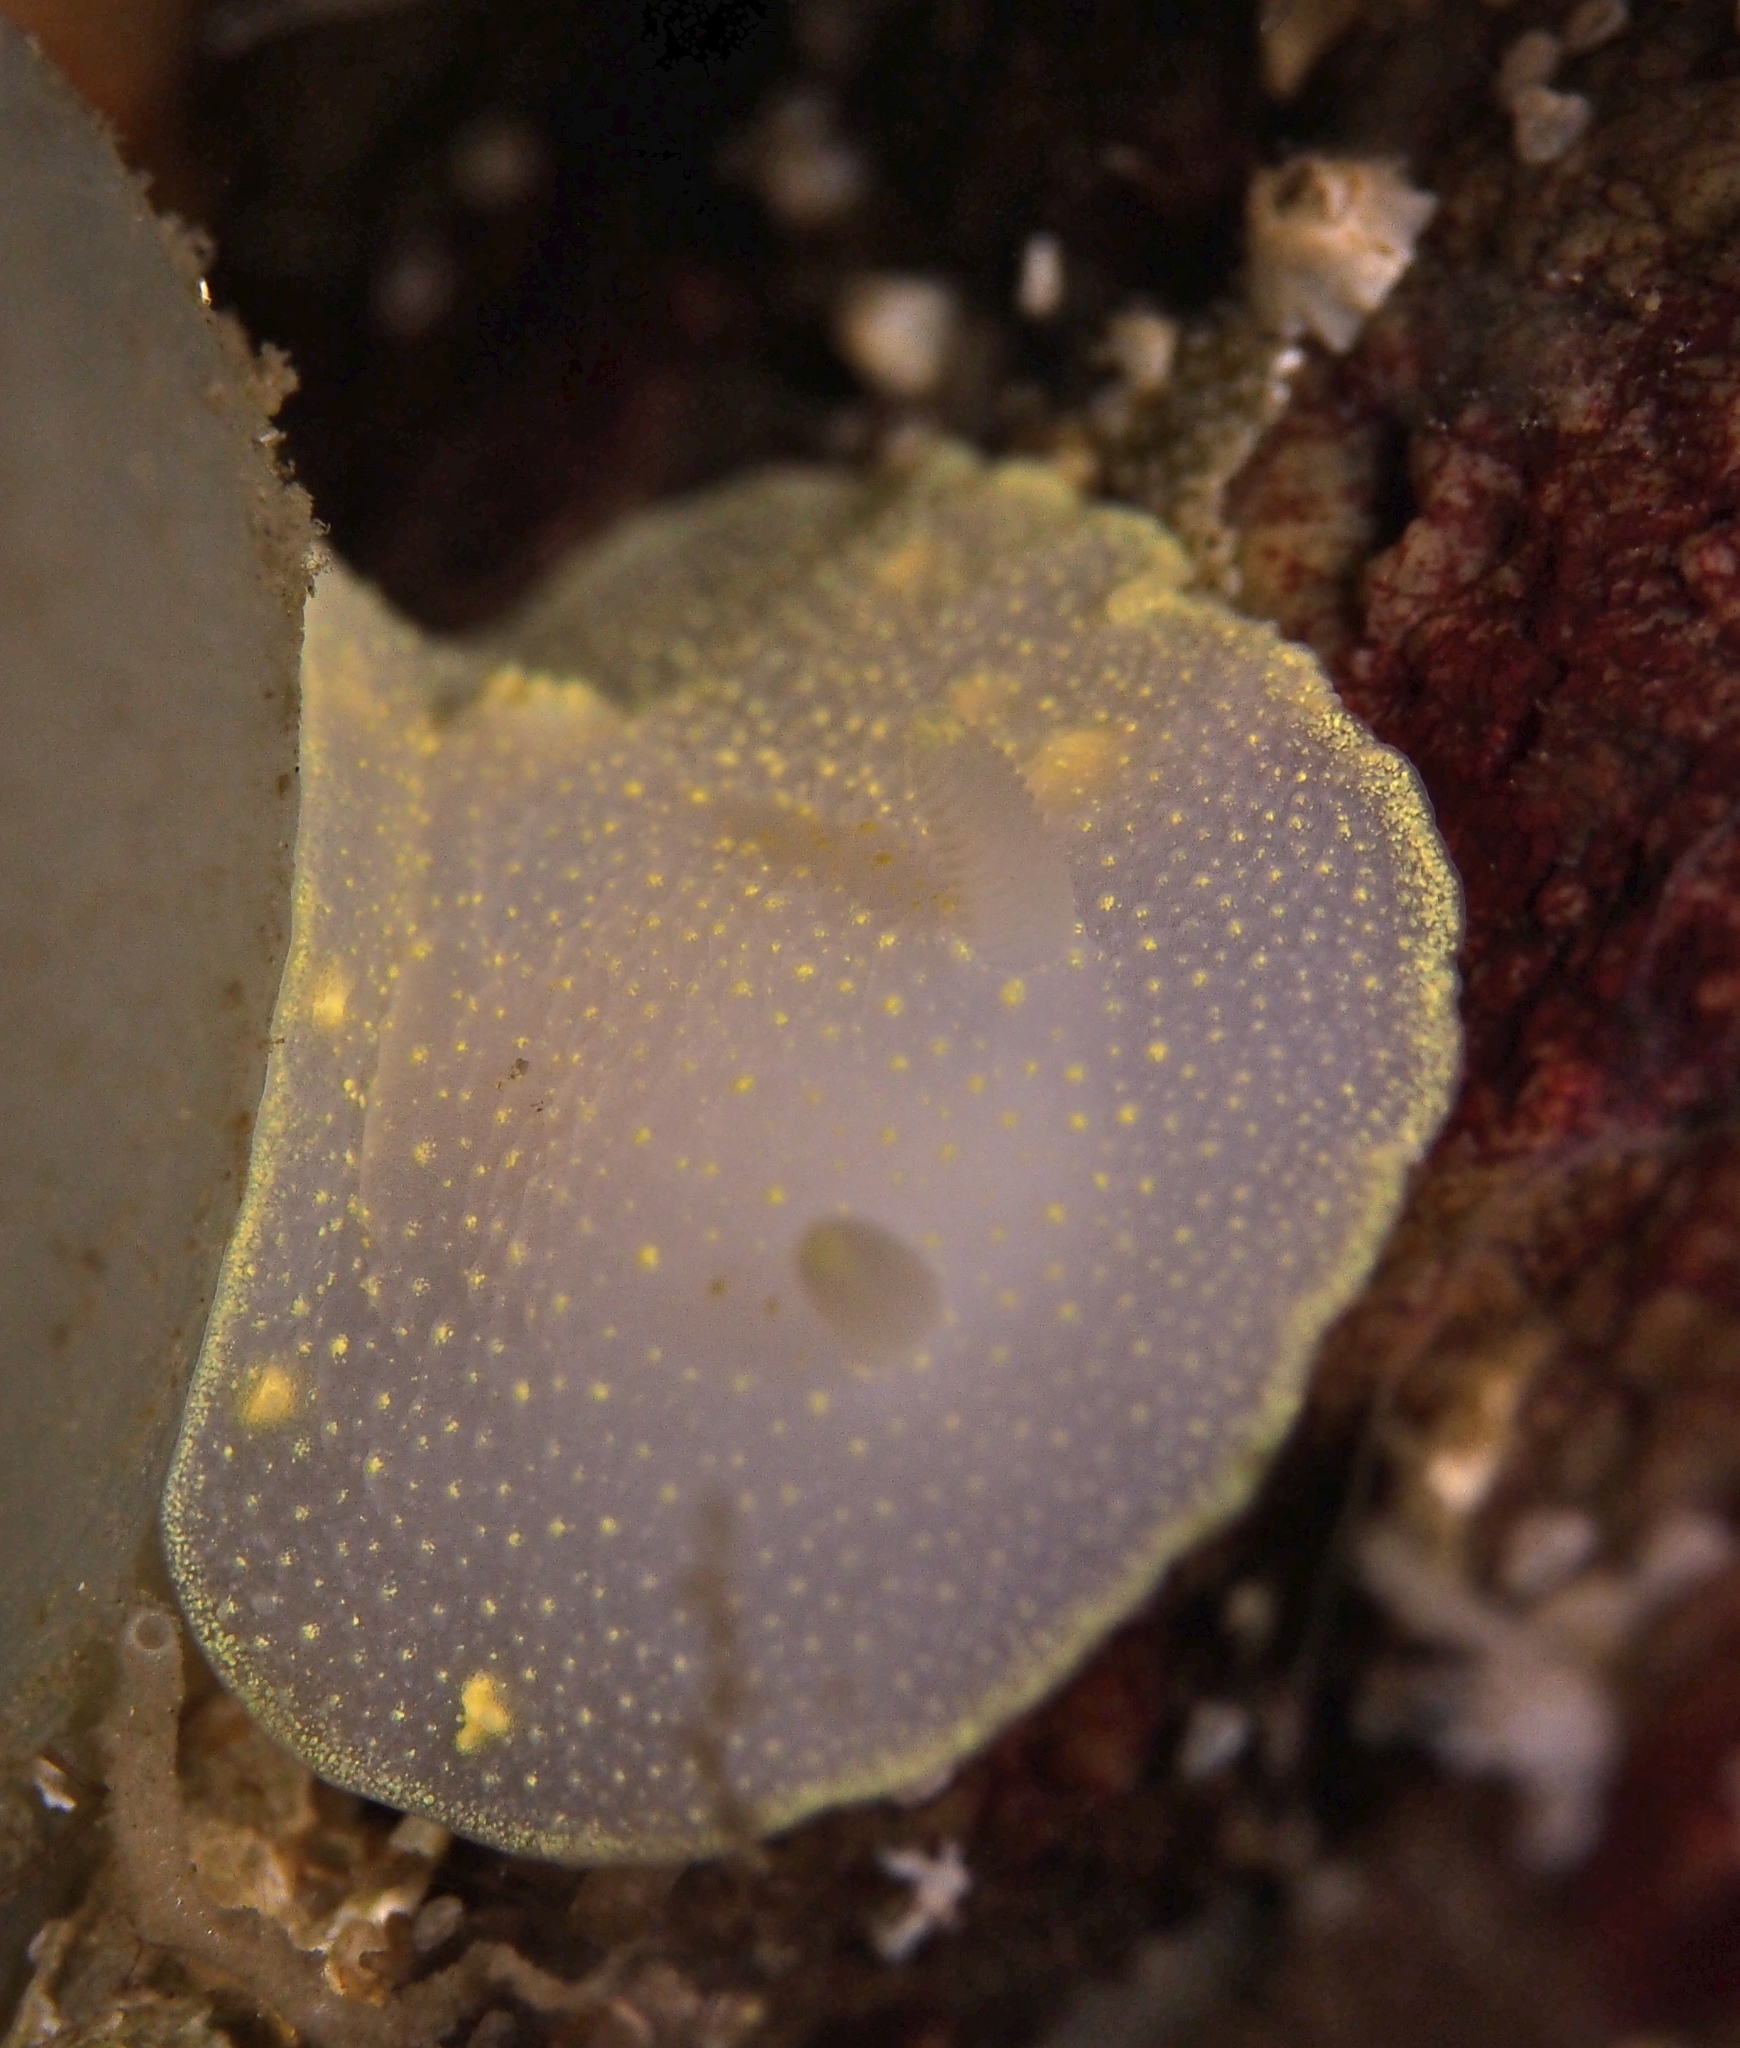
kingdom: Animalia
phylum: Mollusca
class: Gastropoda
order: Nudibranchia
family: Cadlinidae
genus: Cadlina
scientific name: Cadlina laevis
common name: White atlantic cadlina
